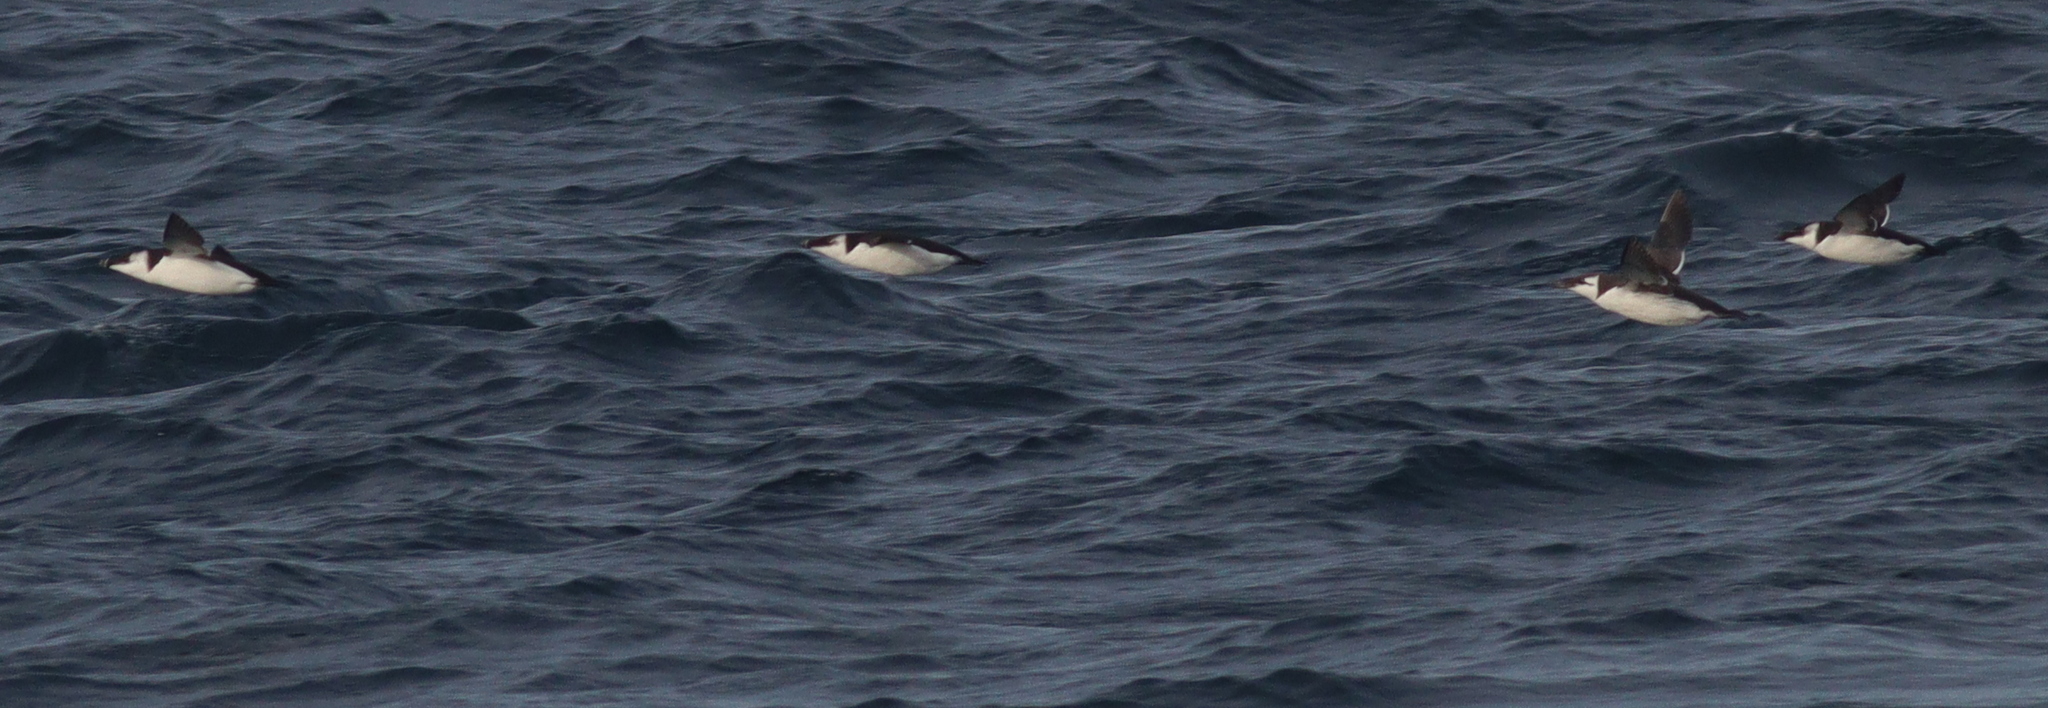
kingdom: Animalia
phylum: Chordata
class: Aves
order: Charadriiformes
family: Alcidae
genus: Alca
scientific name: Alca torda
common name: Razorbill
